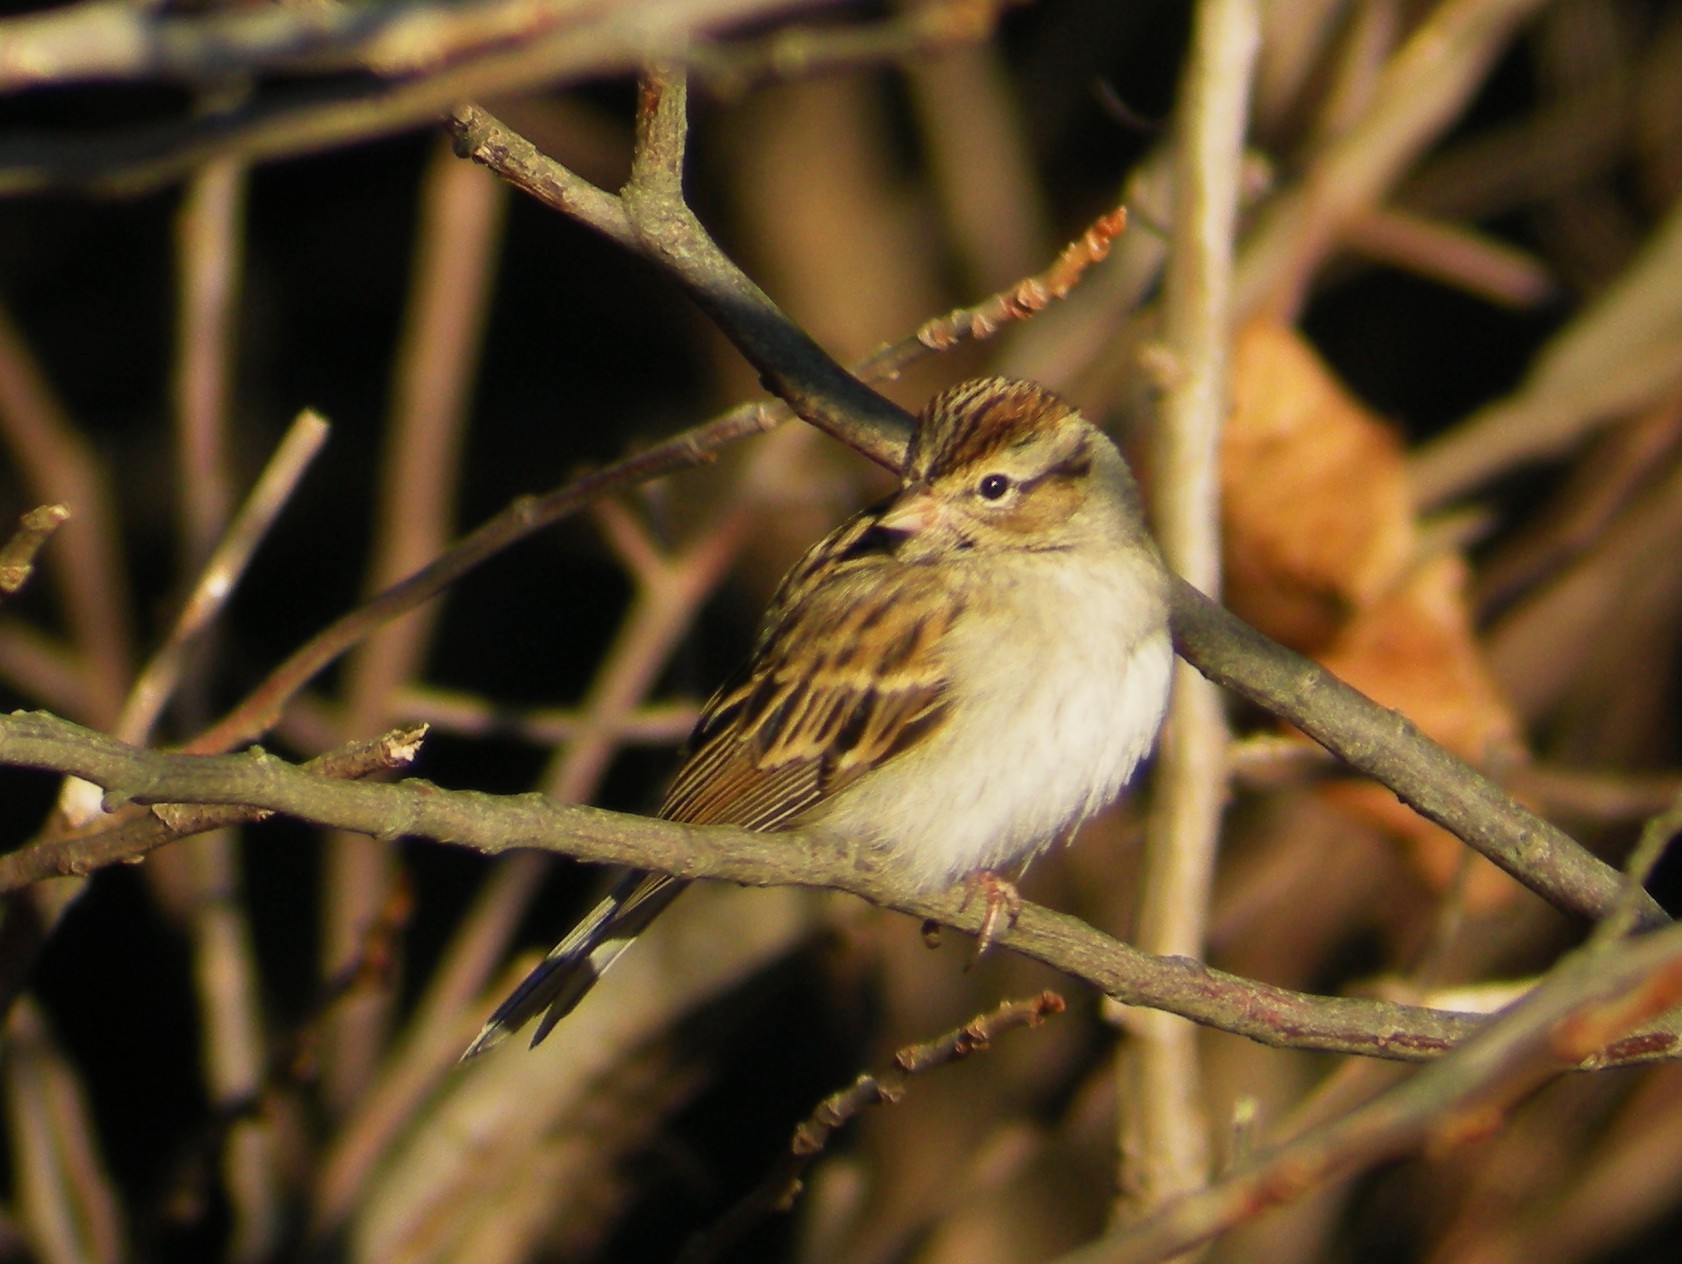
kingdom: Animalia
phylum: Chordata
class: Aves
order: Passeriformes
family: Passerellidae
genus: Spizella
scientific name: Spizella passerina
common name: Chipping sparrow
